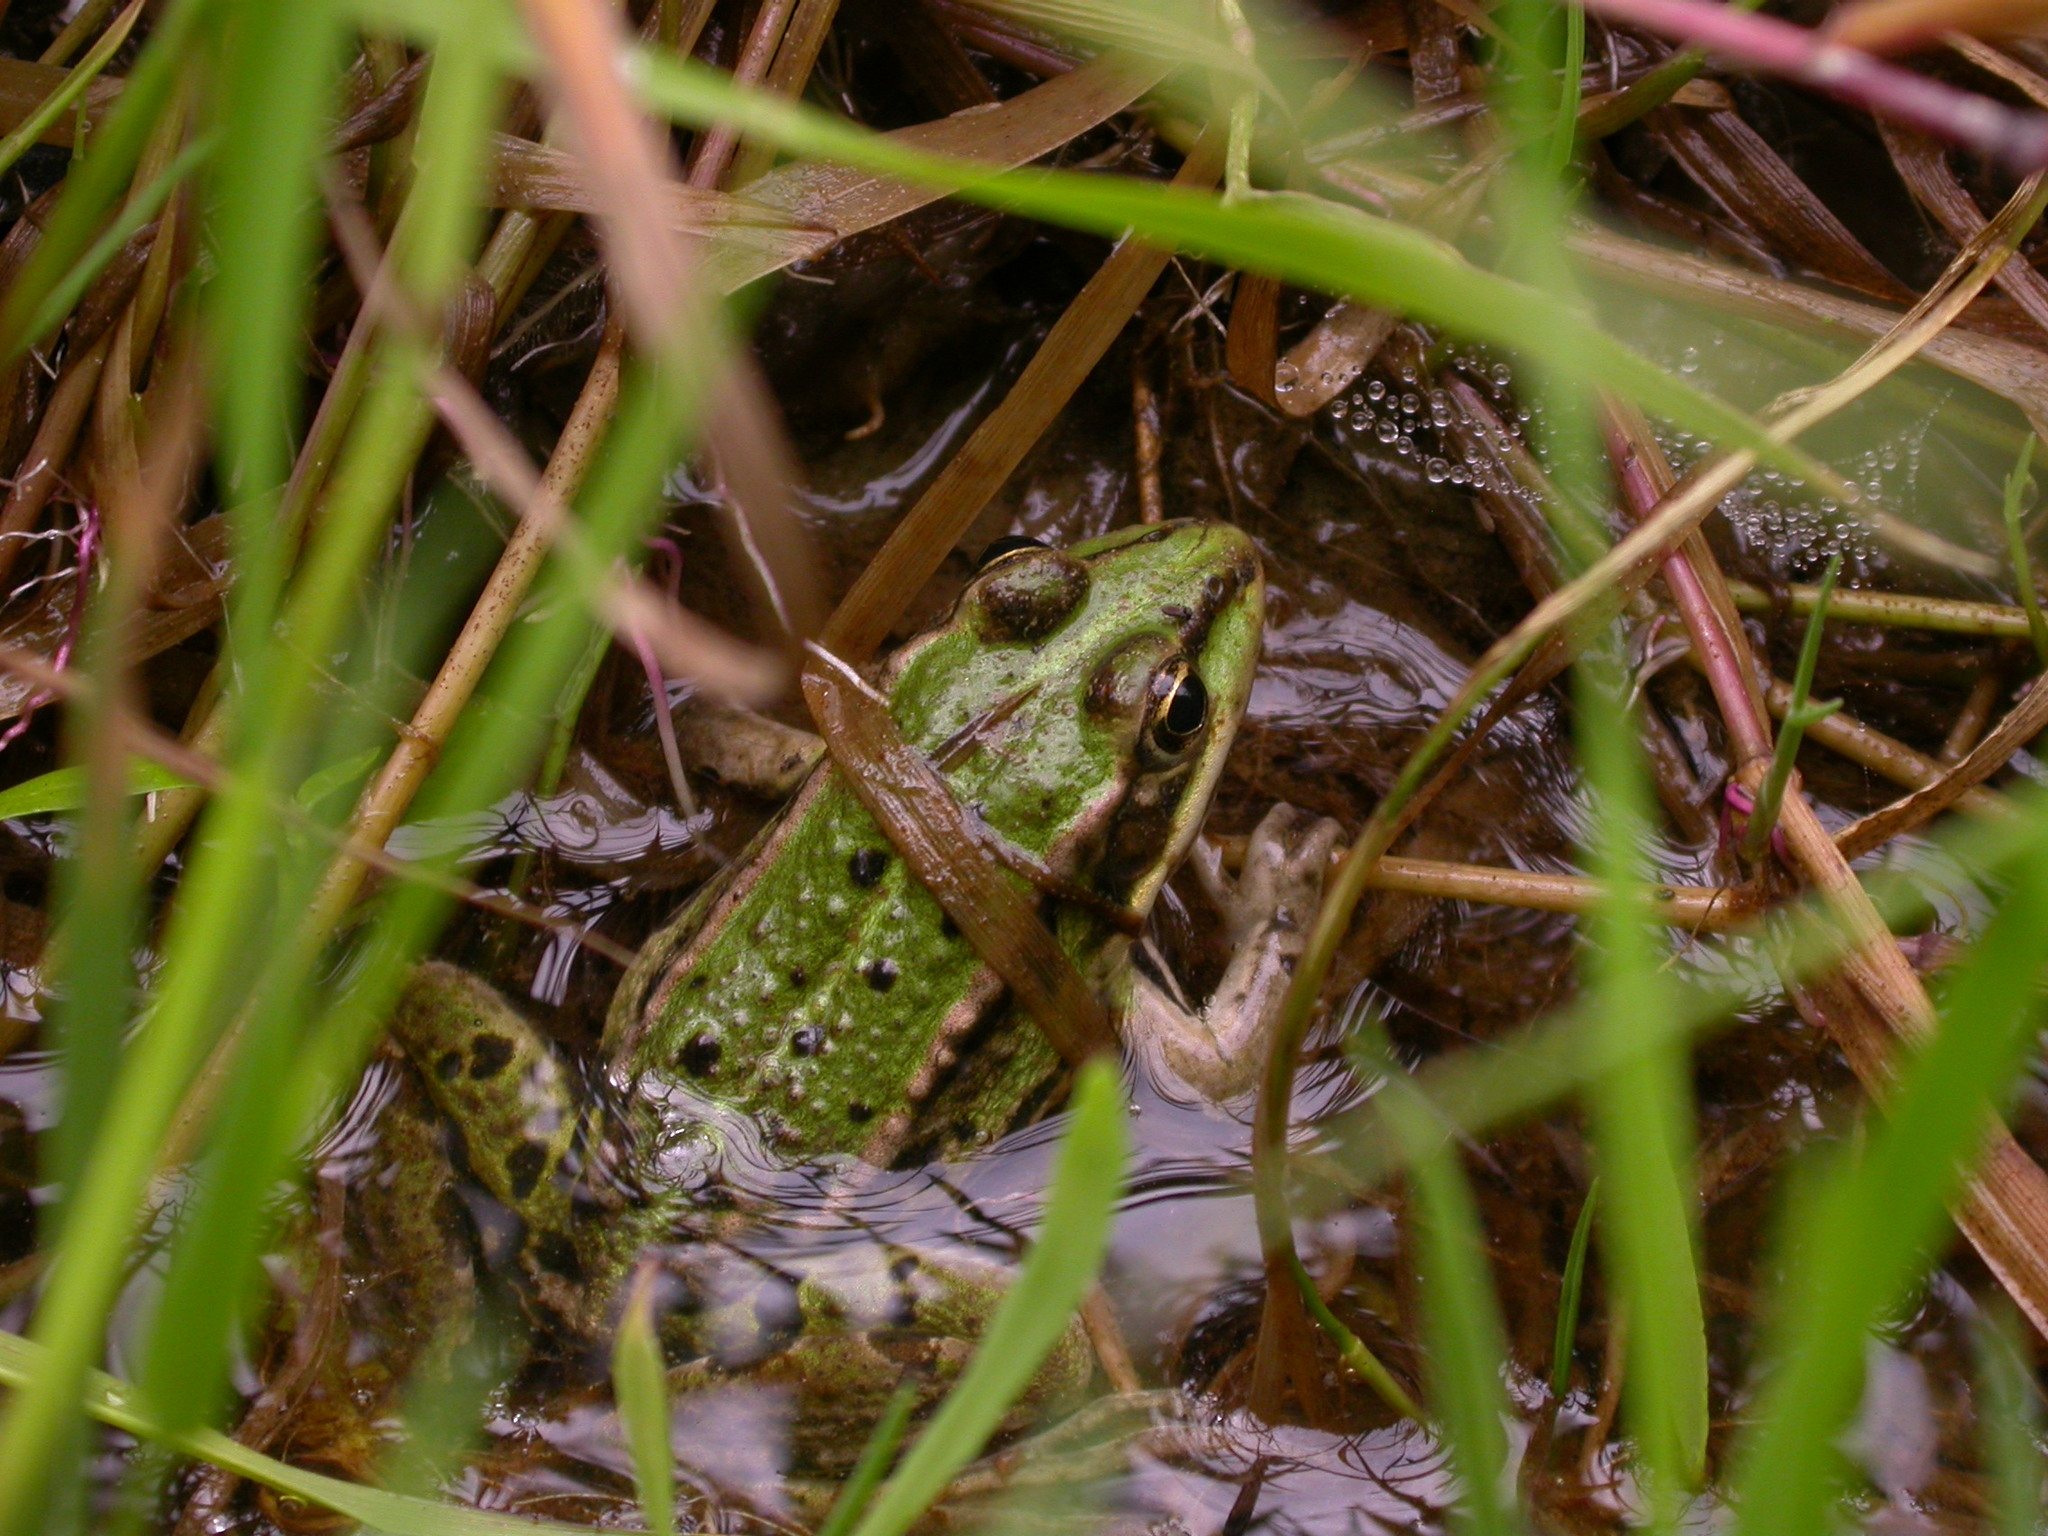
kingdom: Animalia
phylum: Chordata
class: Amphibia
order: Anura
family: Ranidae
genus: Pelophylax
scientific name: Pelophylax lessonae
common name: Pool frog
